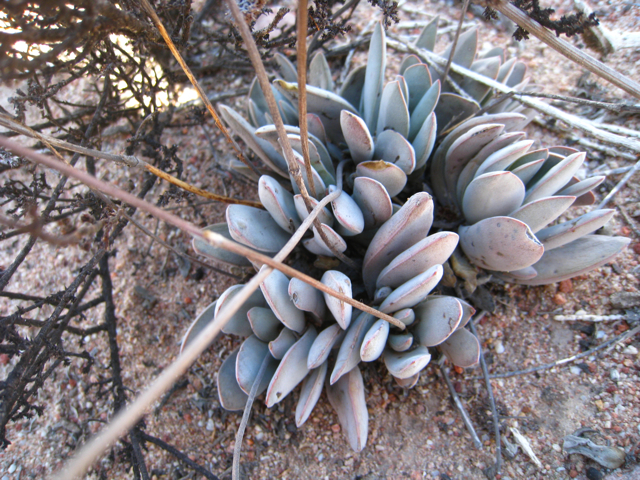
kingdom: Plantae
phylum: Tracheophyta
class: Magnoliopsida
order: Saxifragales
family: Crassulaceae
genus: Crassula
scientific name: Crassula cotyledonis
